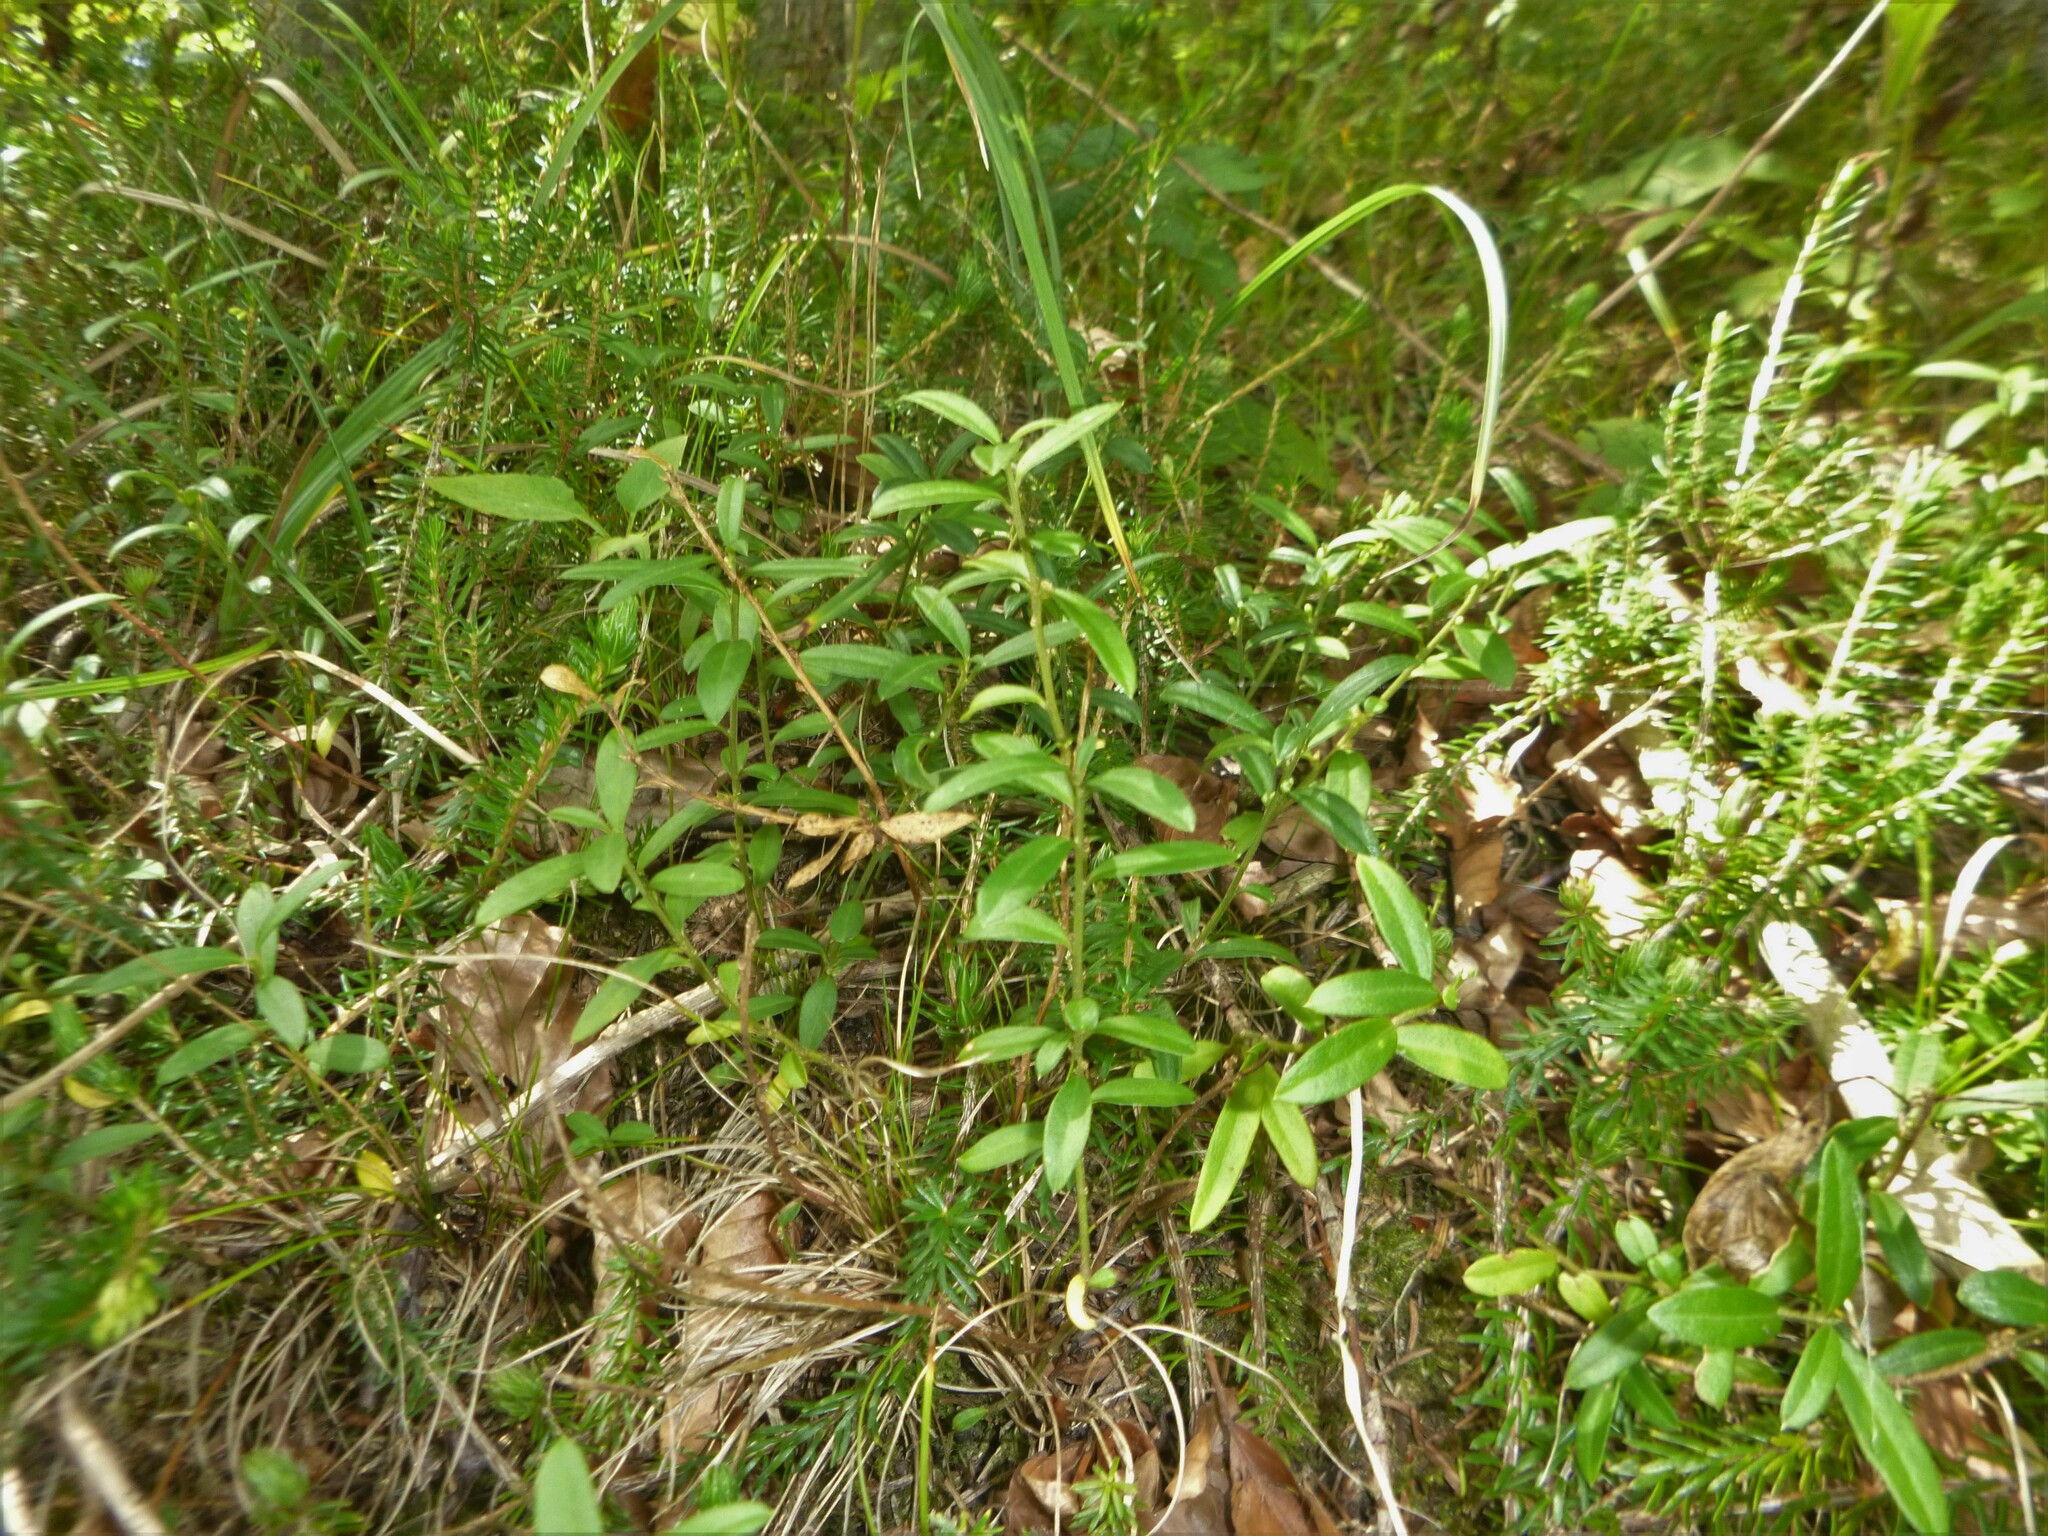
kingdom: Plantae
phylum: Tracheophyta
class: Magnoliopsida
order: Fabales
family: Polygalaceae
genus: Polygaloides
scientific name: Polygaloides chamaebuxus
